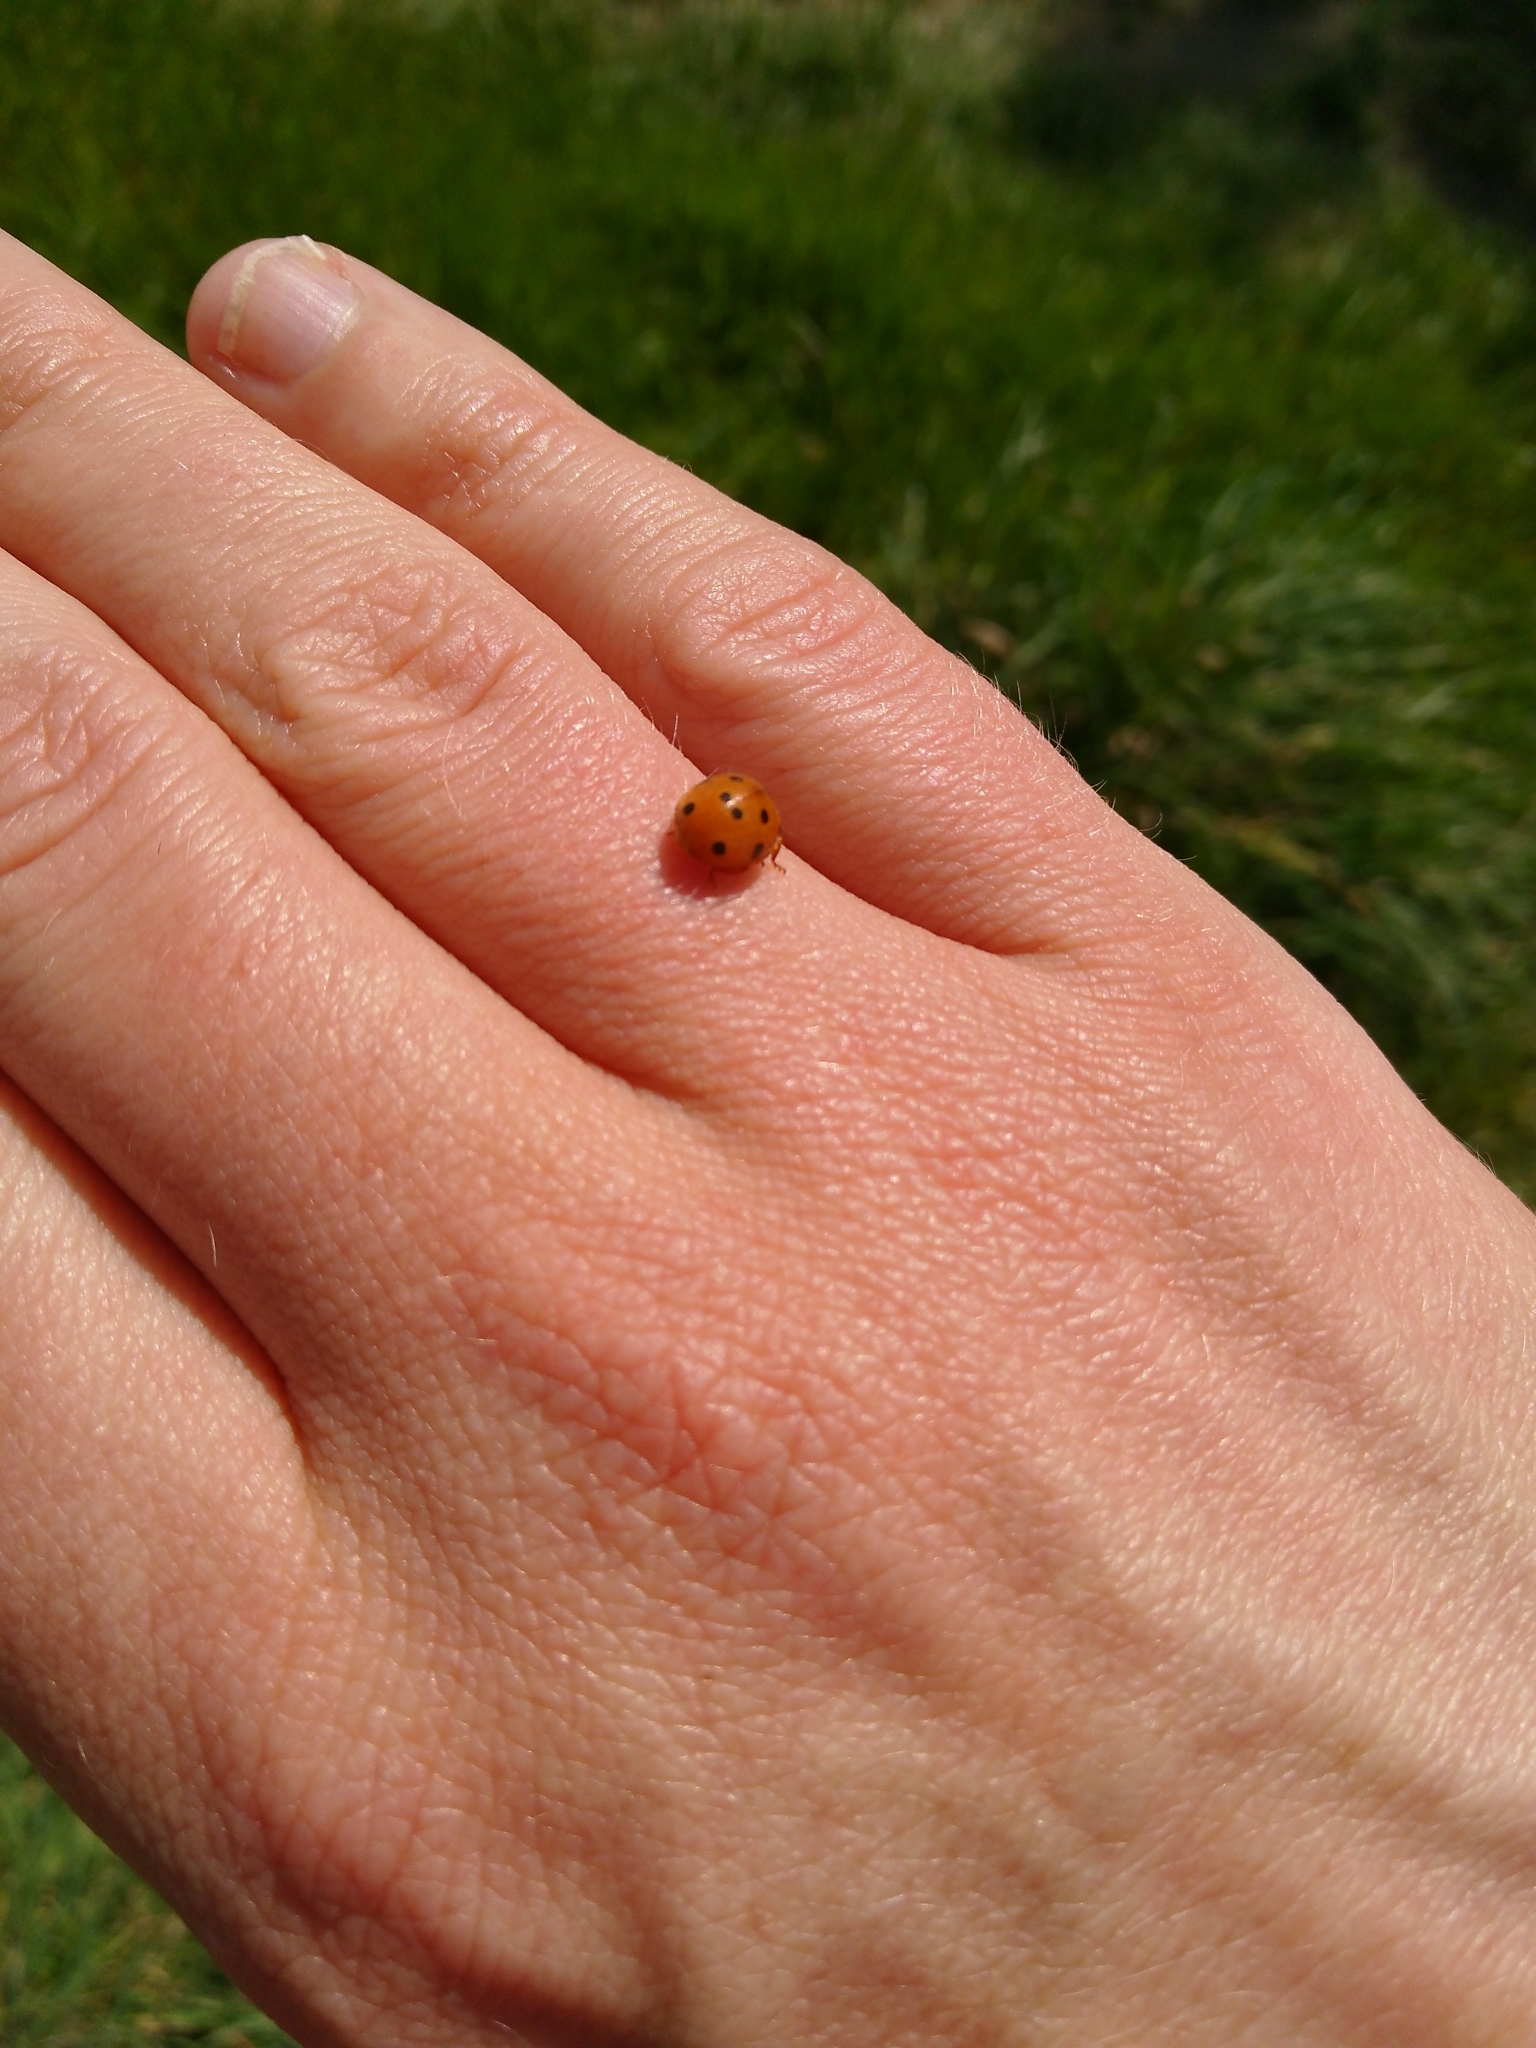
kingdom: Animalia
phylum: Arthropoda
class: Insecta
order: Coleoptera
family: Coccinellidae
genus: Henosepilachna
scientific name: Henosepilachna argus
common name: Bryony ladybird
